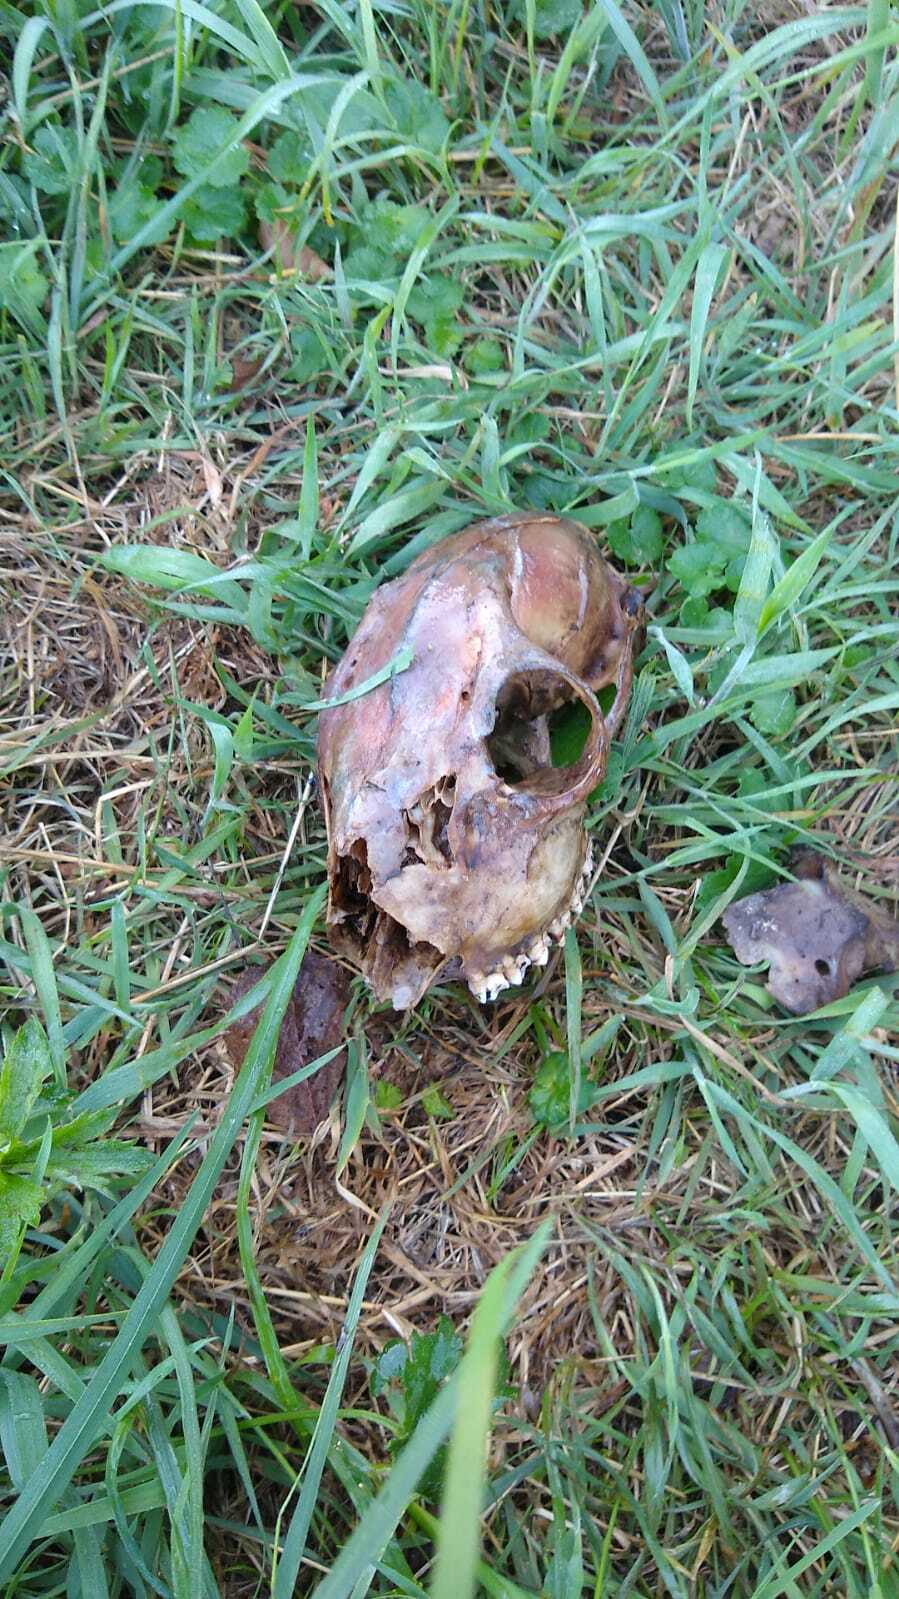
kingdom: Animalia
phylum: Chordata
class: Mammalia
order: Artiodactyla
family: Cervidae
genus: Capreolus
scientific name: Capreolus capreolus
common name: Western roe deer
